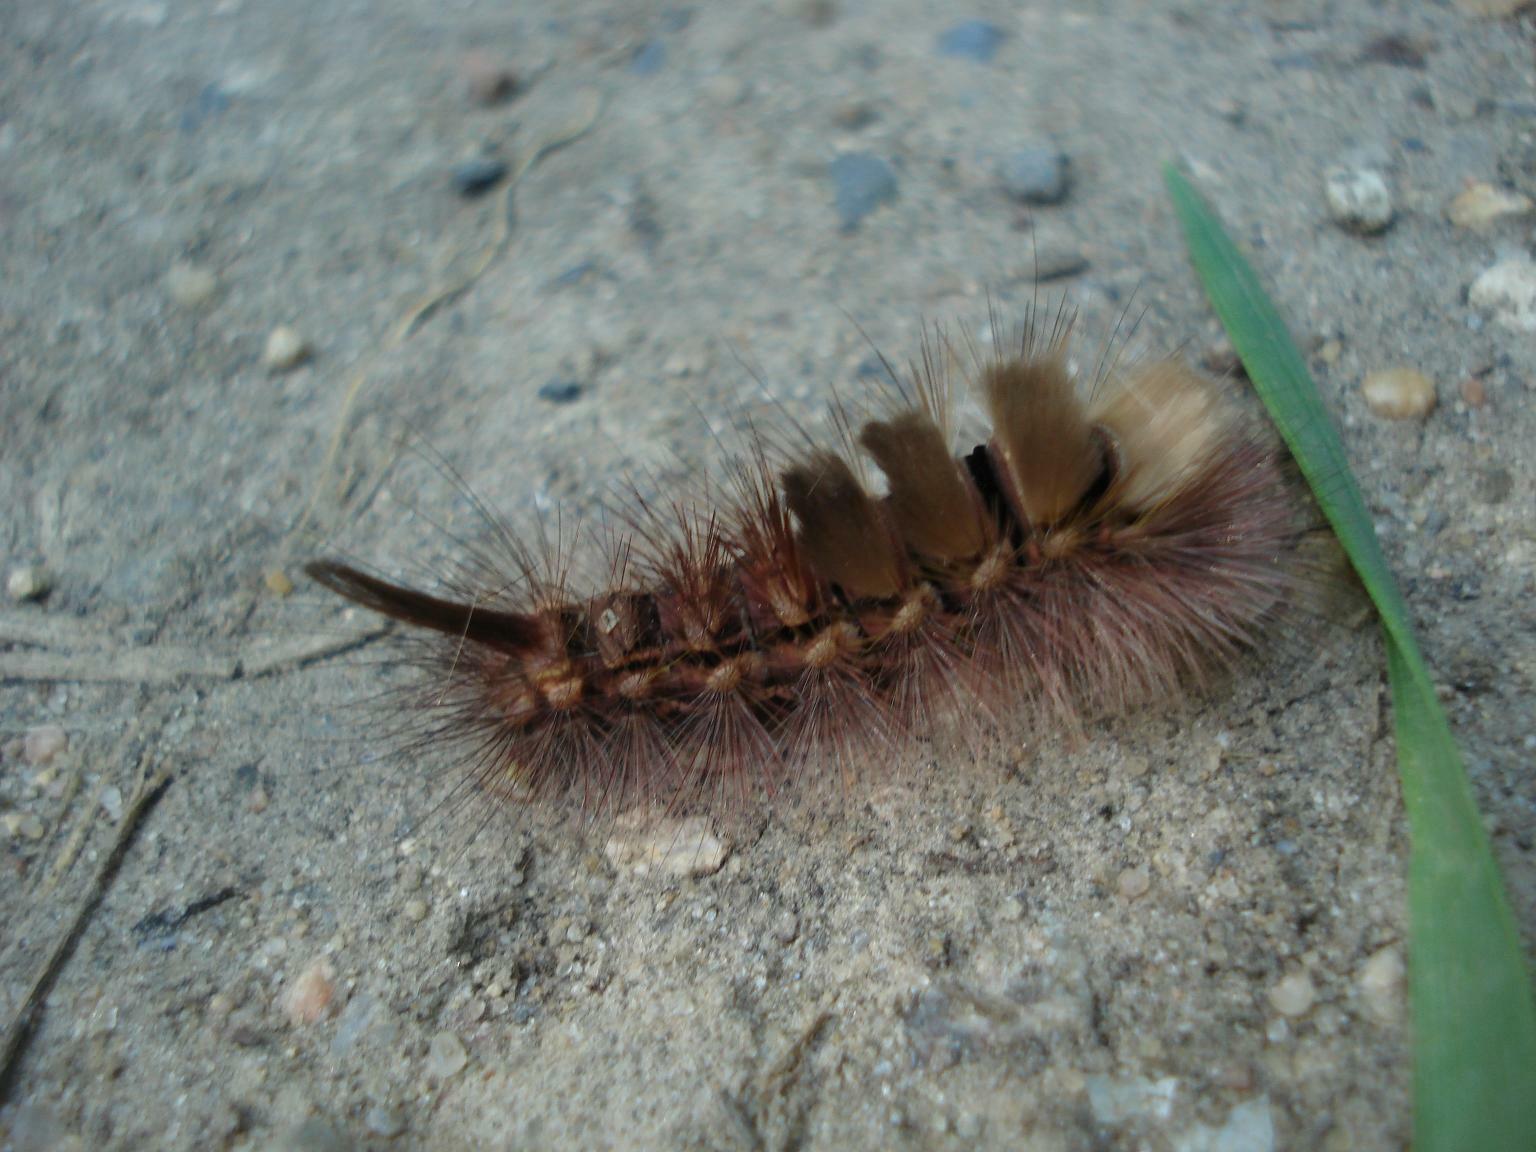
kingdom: Animalia
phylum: Arthropoda
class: Insecta
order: Lepidoptera
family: Erebidae
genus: Calliteara
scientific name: Calliteara pudibunda
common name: Pale tussock
